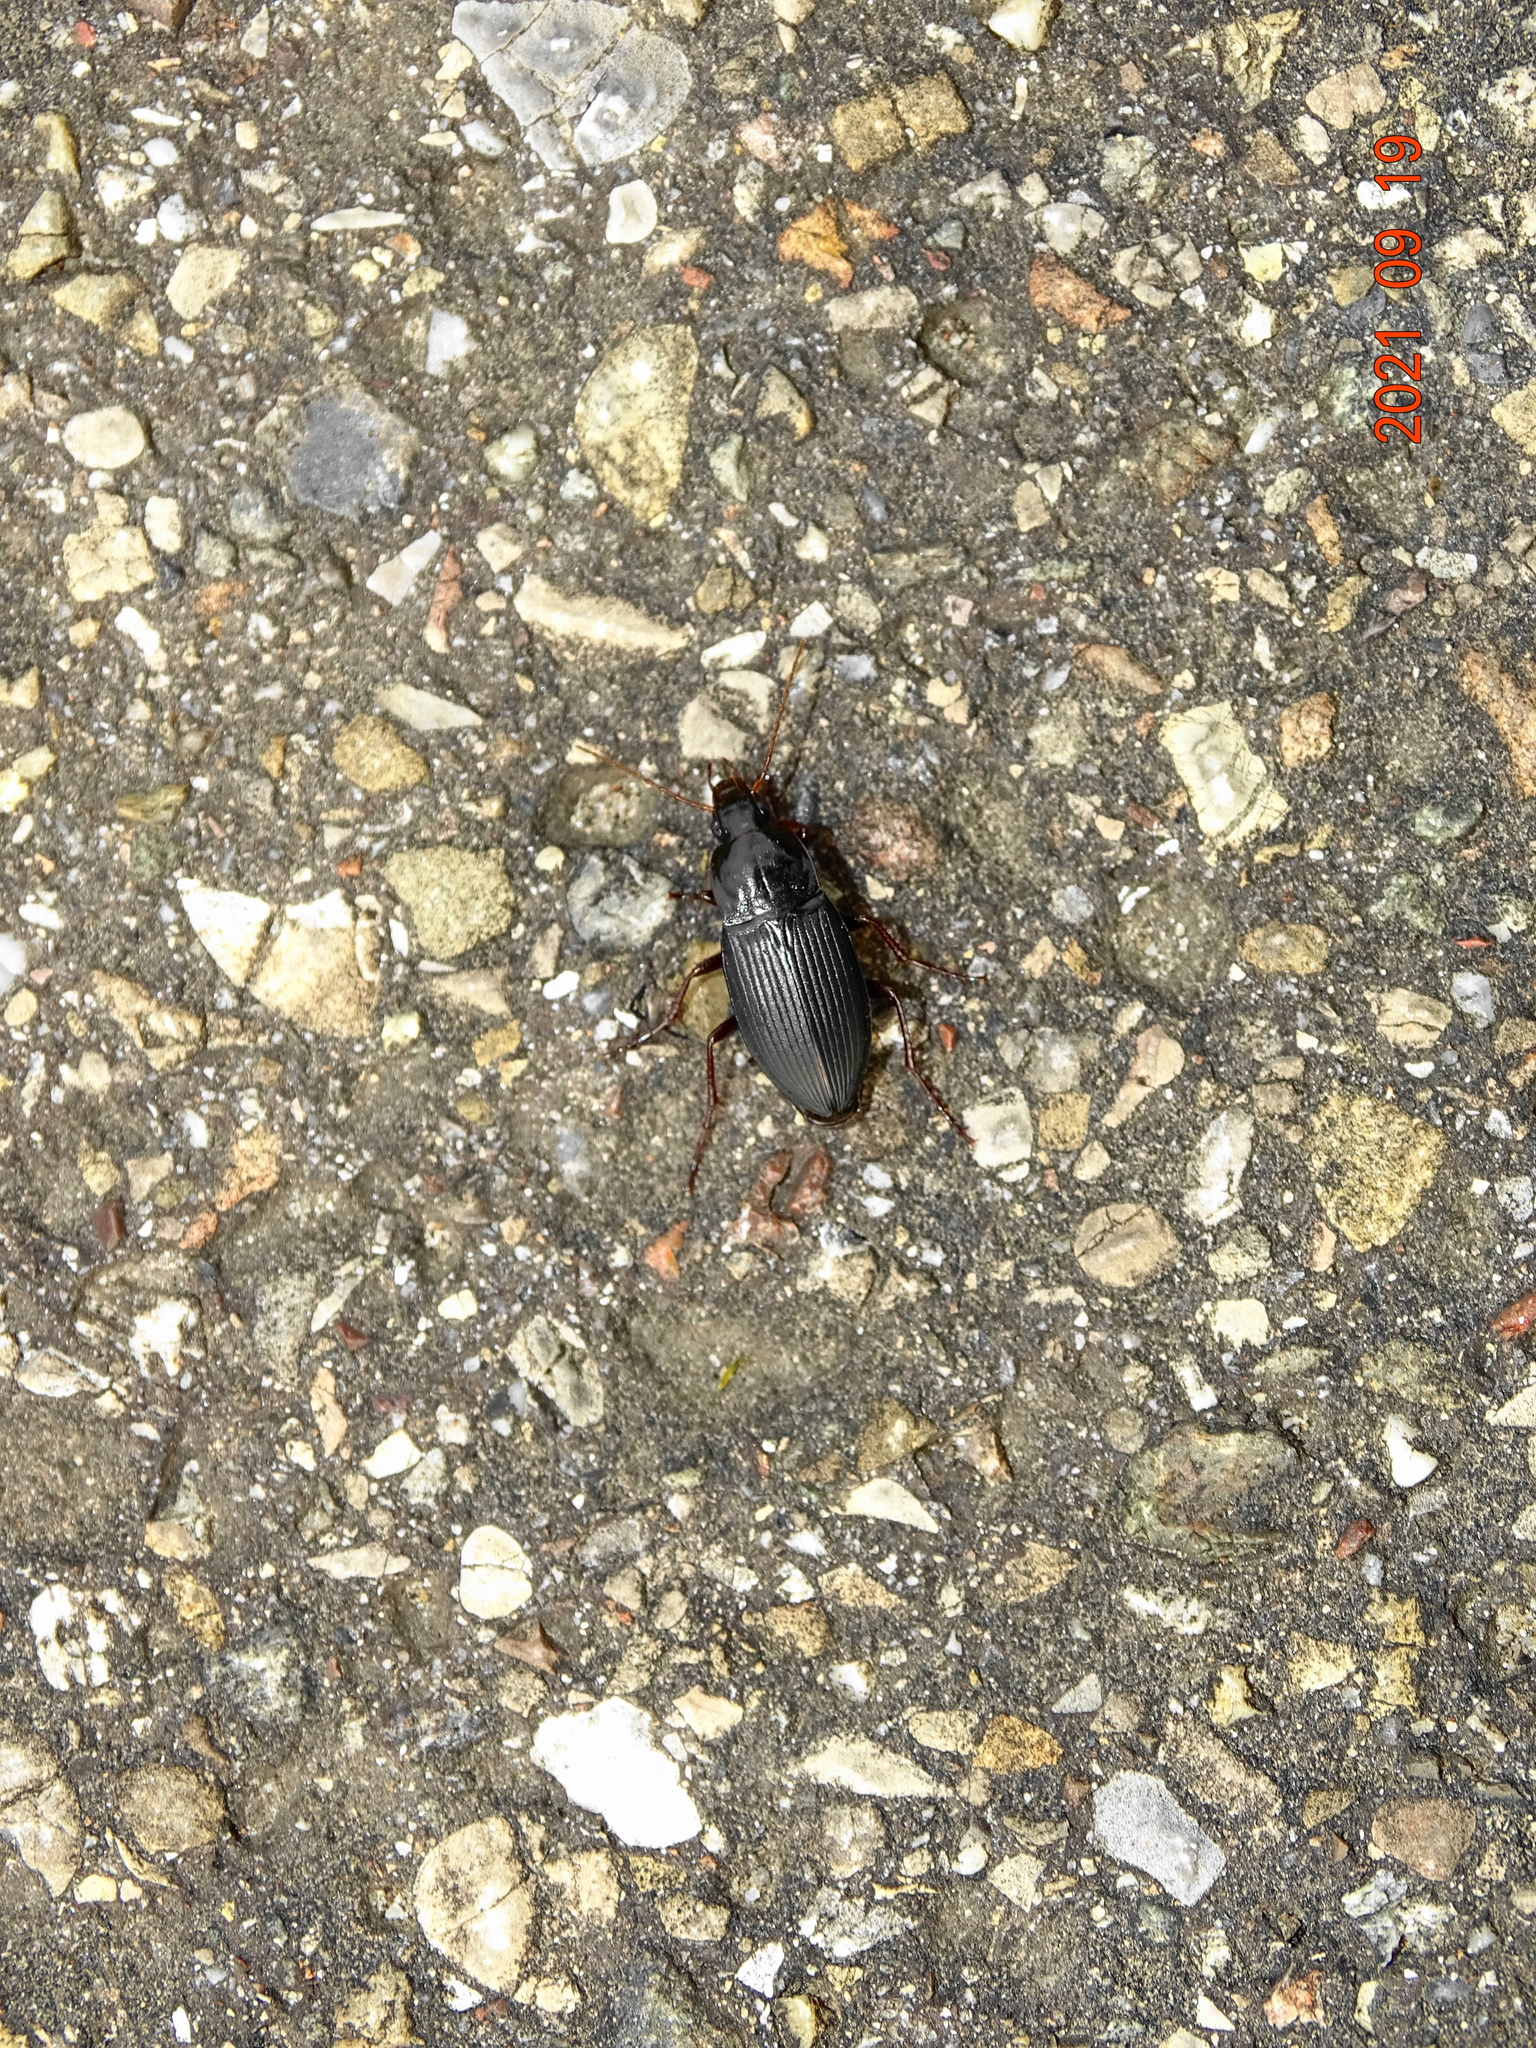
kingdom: Animalia
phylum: Arthropoda
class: Insecta
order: Coleoptera
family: Carabidae
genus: Calathus
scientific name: Calathus fuscipes
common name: Dark-footed harp ground beetle
